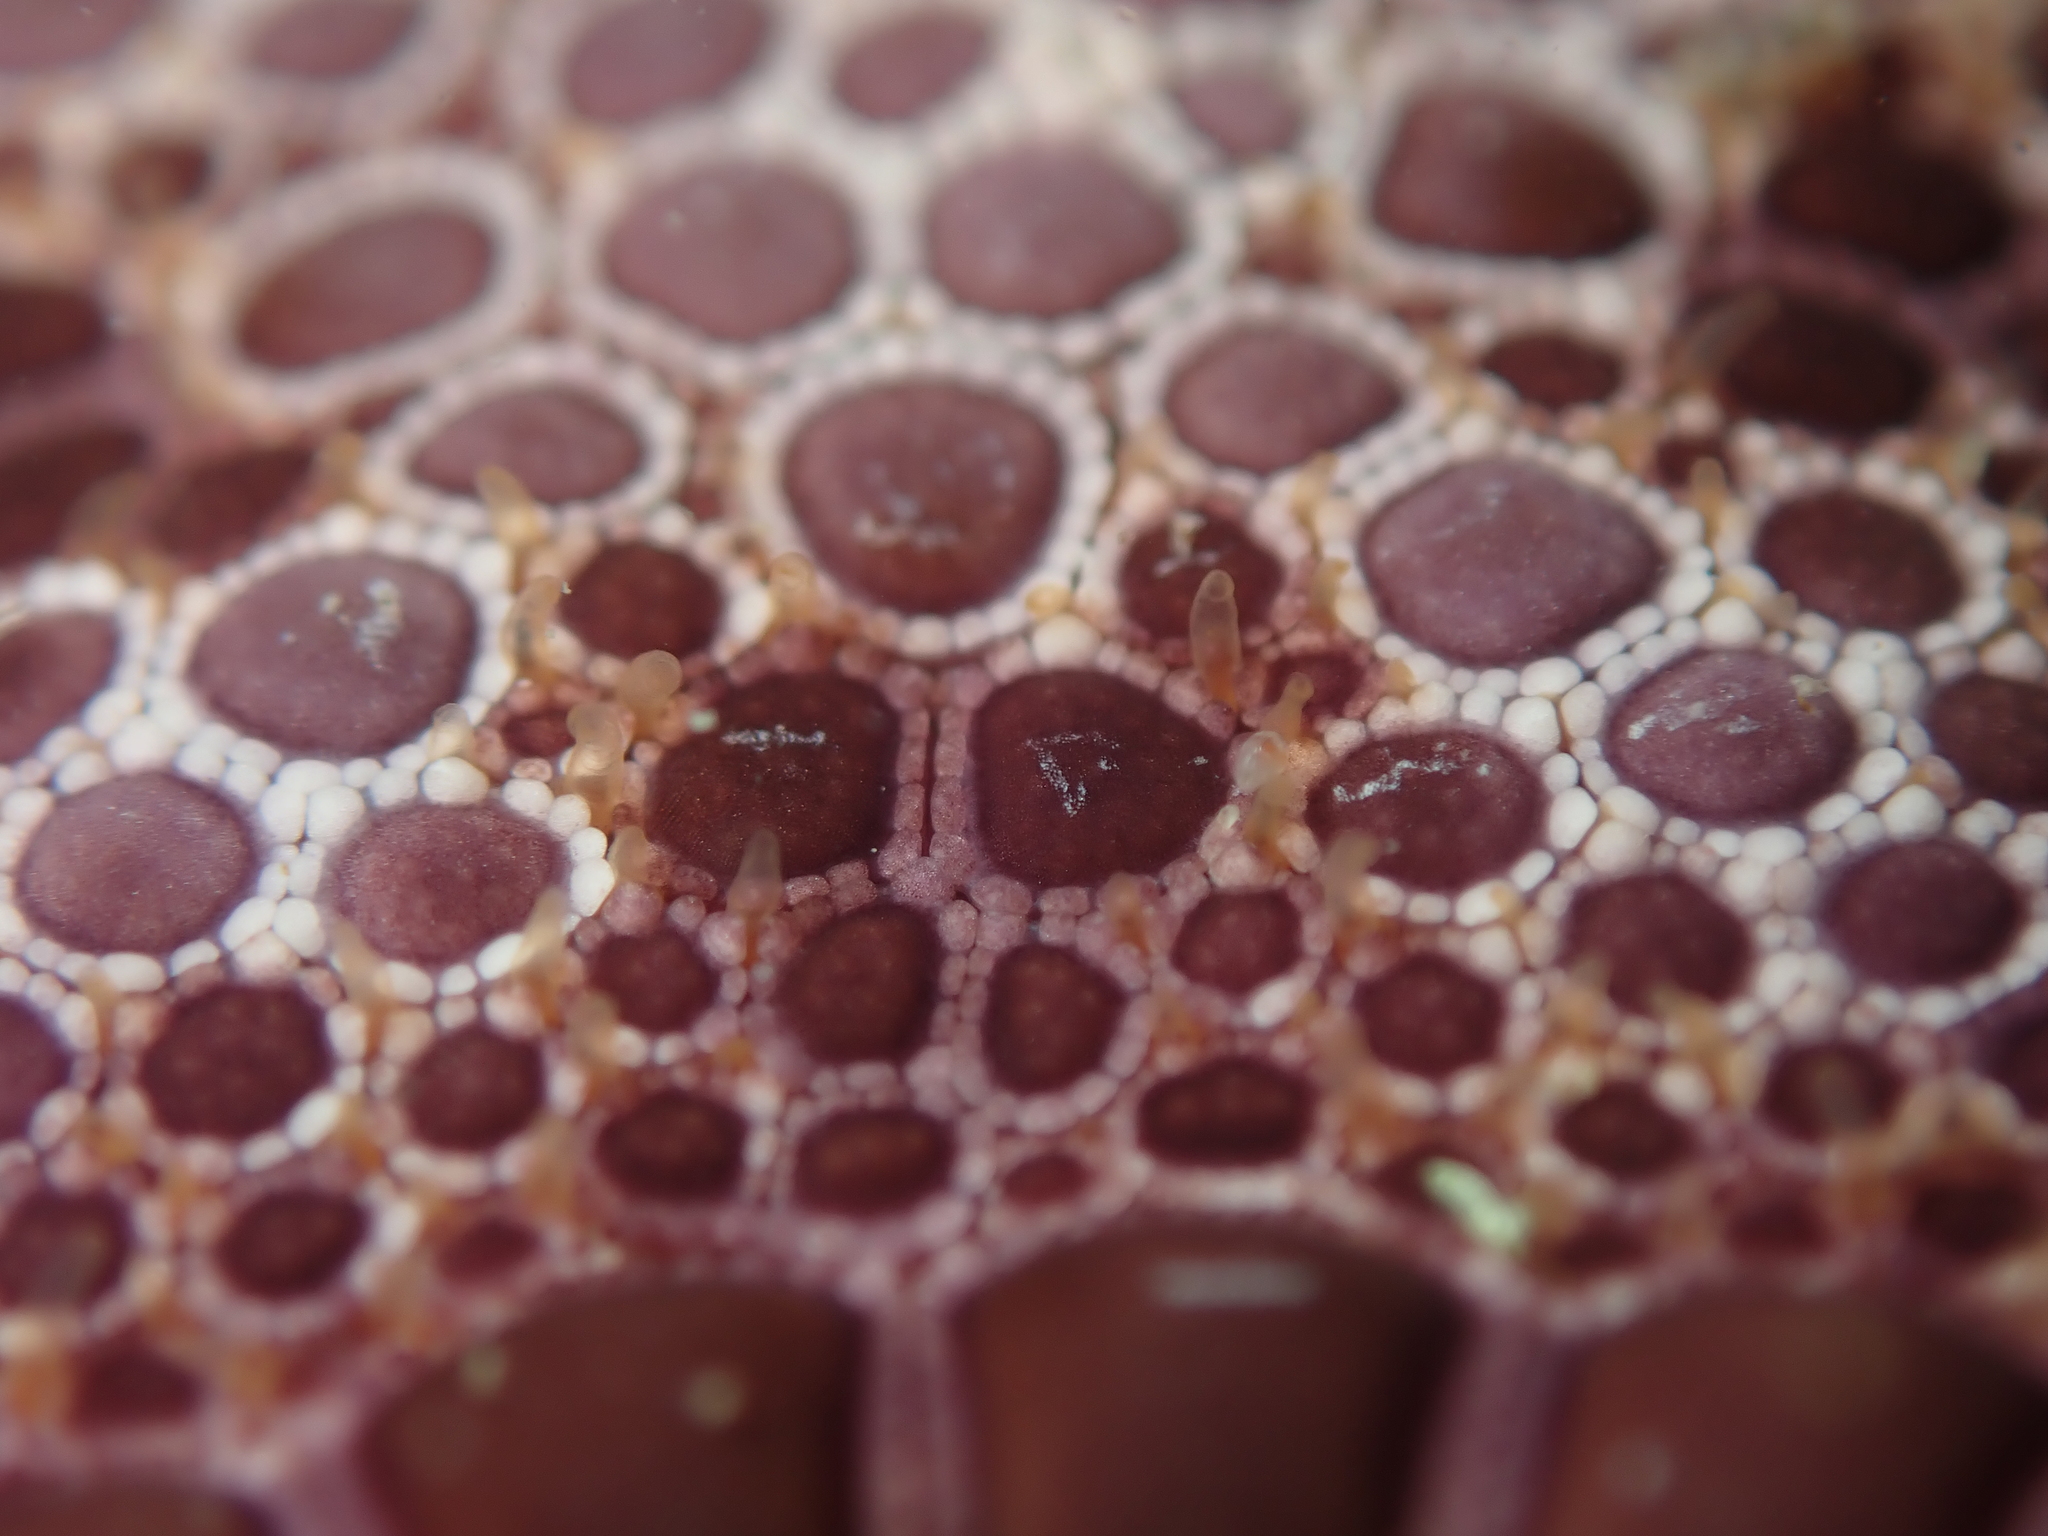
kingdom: Animalia
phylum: Echinodermata
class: Asteroidea
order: Valvatida
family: Goniasteridae
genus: Pentagonaster
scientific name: Pentagonaster pulchellus
